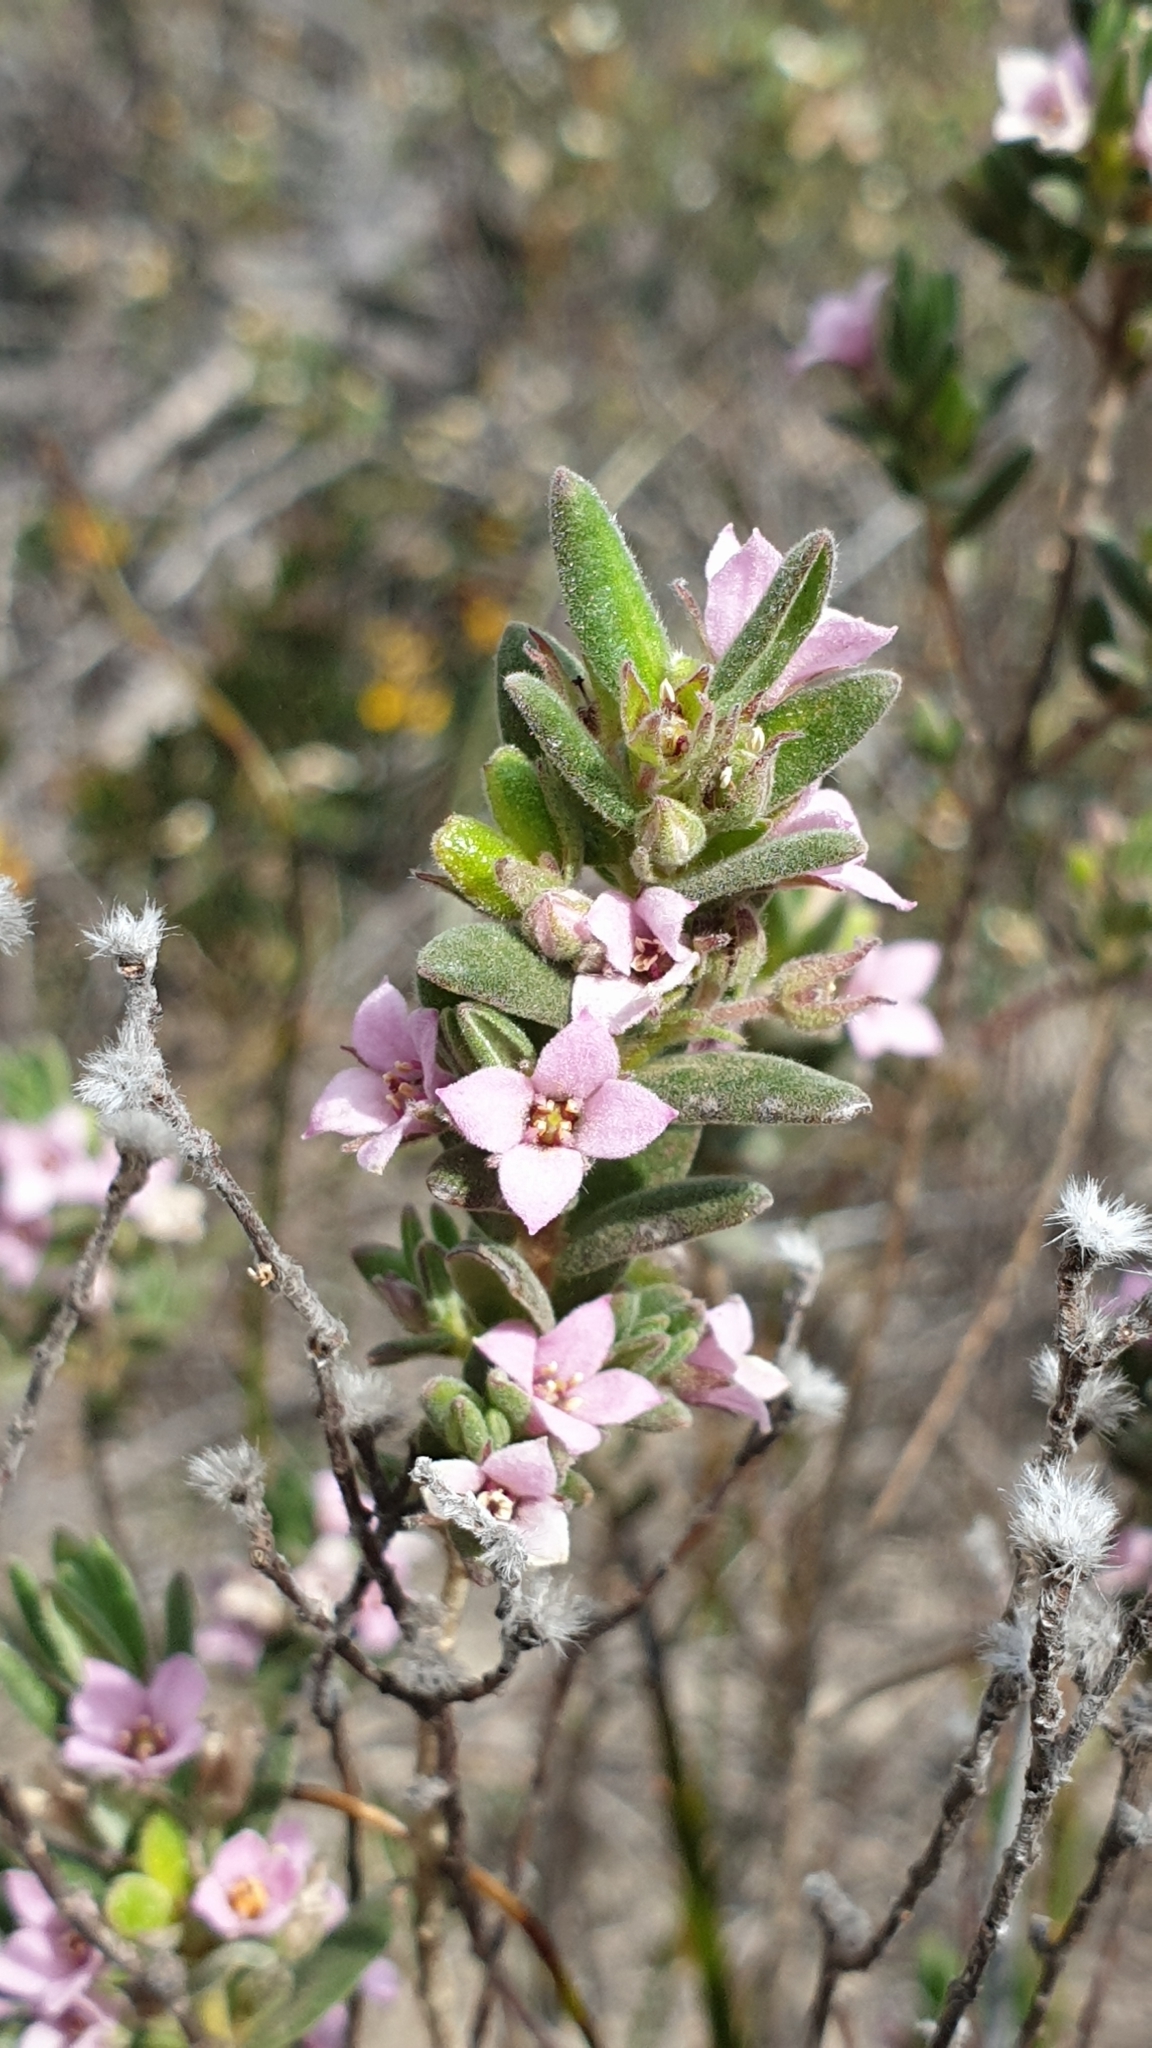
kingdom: Plantae
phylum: Tracheophyta
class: Magnoliopsida
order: Sapindales
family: Rutaceae
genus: Zieria
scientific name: Zieria veronicea
